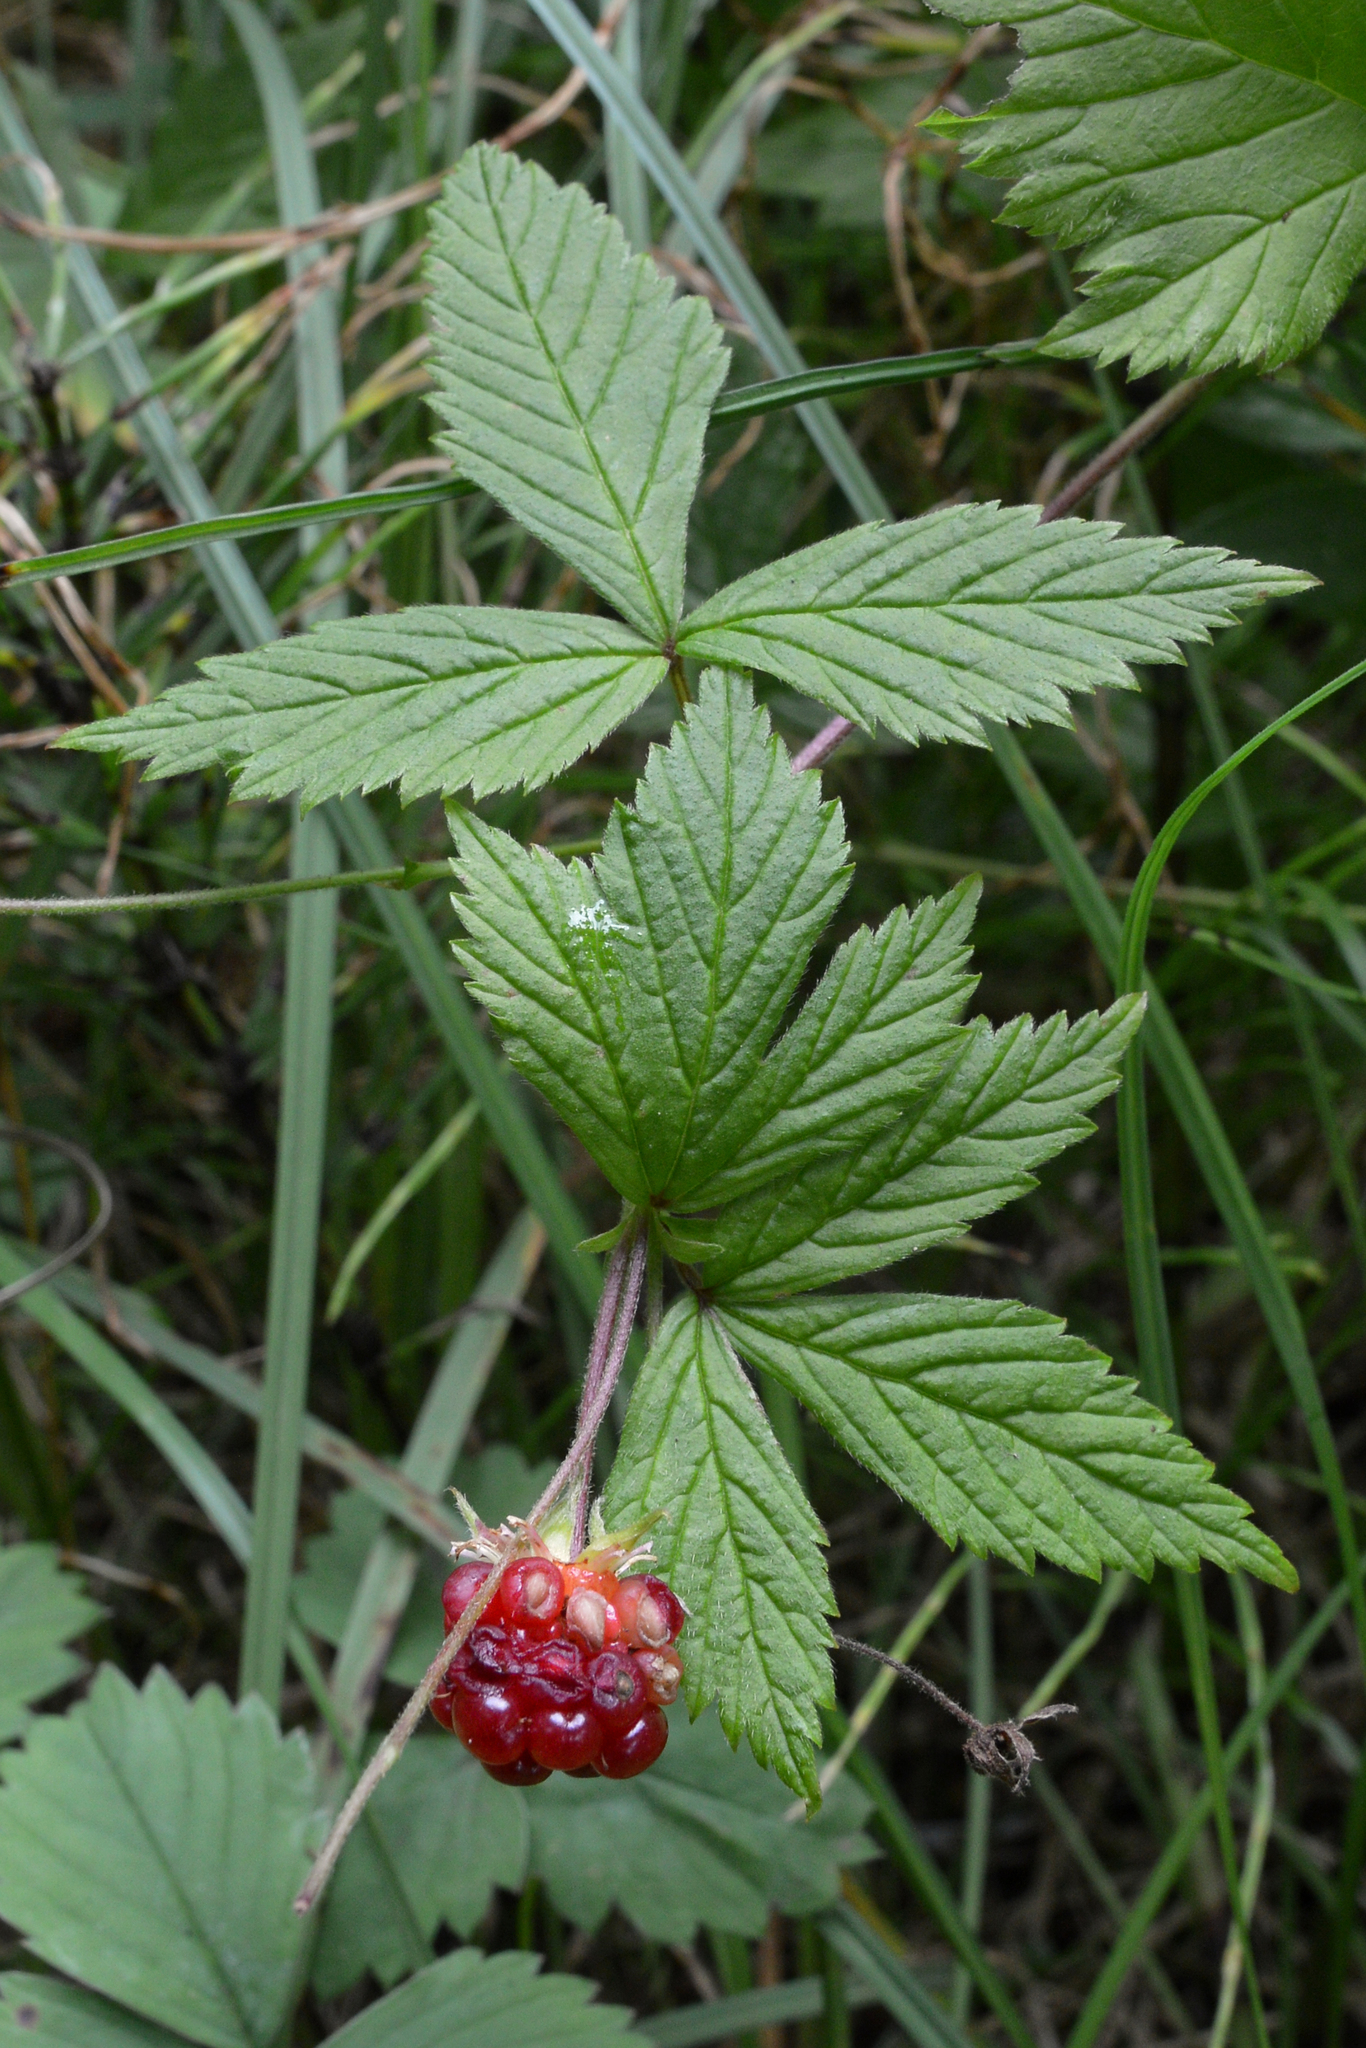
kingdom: Plantae
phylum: Tracheophyta
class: Magnoliopsida
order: Rosales
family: Rosaceae
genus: Rubus
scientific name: Rubus pubescens
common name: Dwarf raspberry
